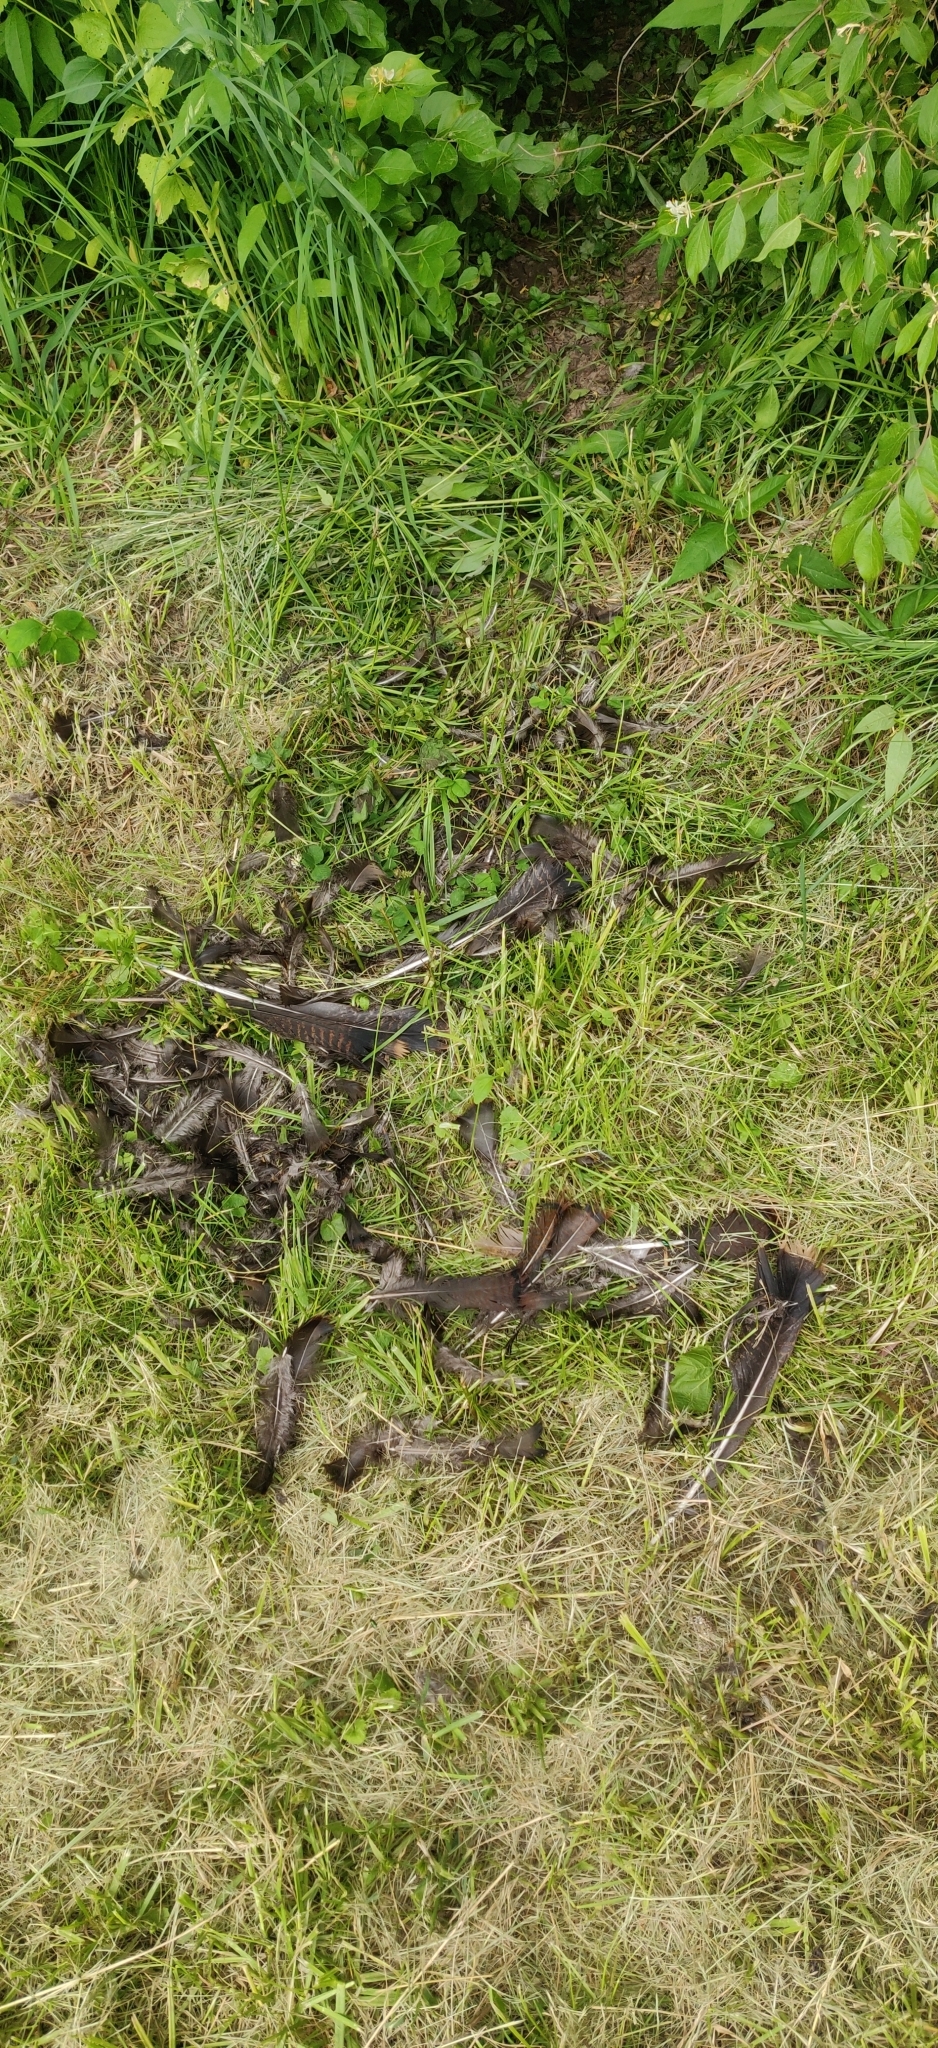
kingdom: Animalia
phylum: Chordata
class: Aves
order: Galliformes
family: Phasianidae
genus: Meleagris
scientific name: Meleagris gallopavo
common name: Wild turkey
